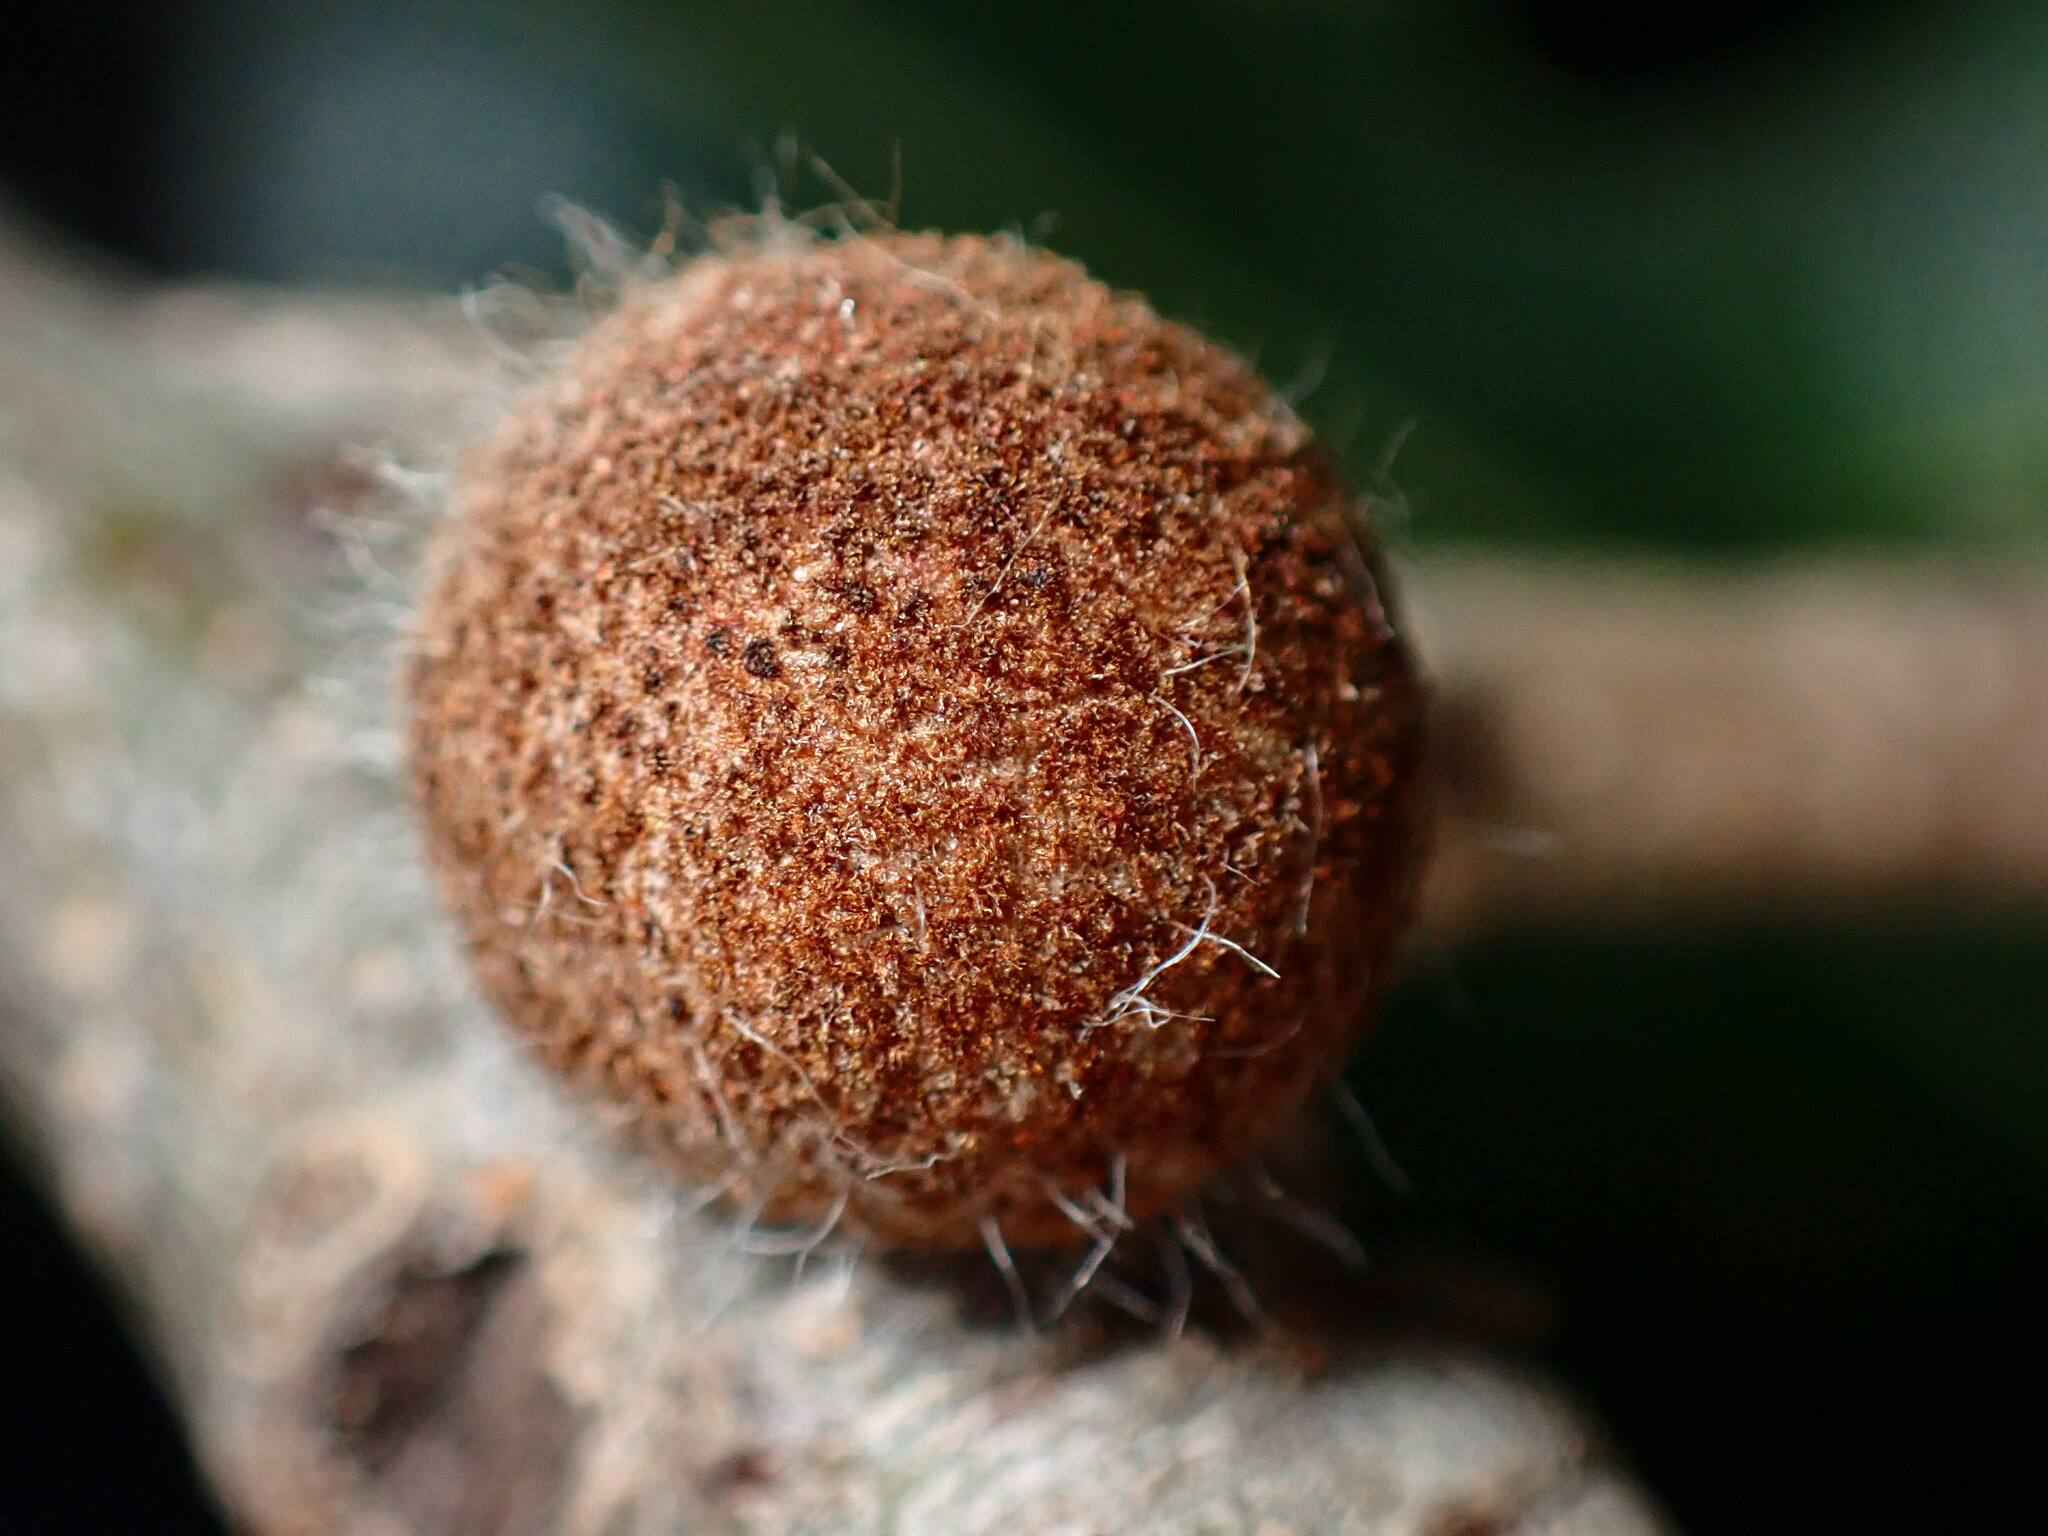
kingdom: Animalia
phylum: Arthropoda
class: Insecta
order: Hymenoptera
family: Cynipidae
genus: Burnettweldia
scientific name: Burnettweldia
